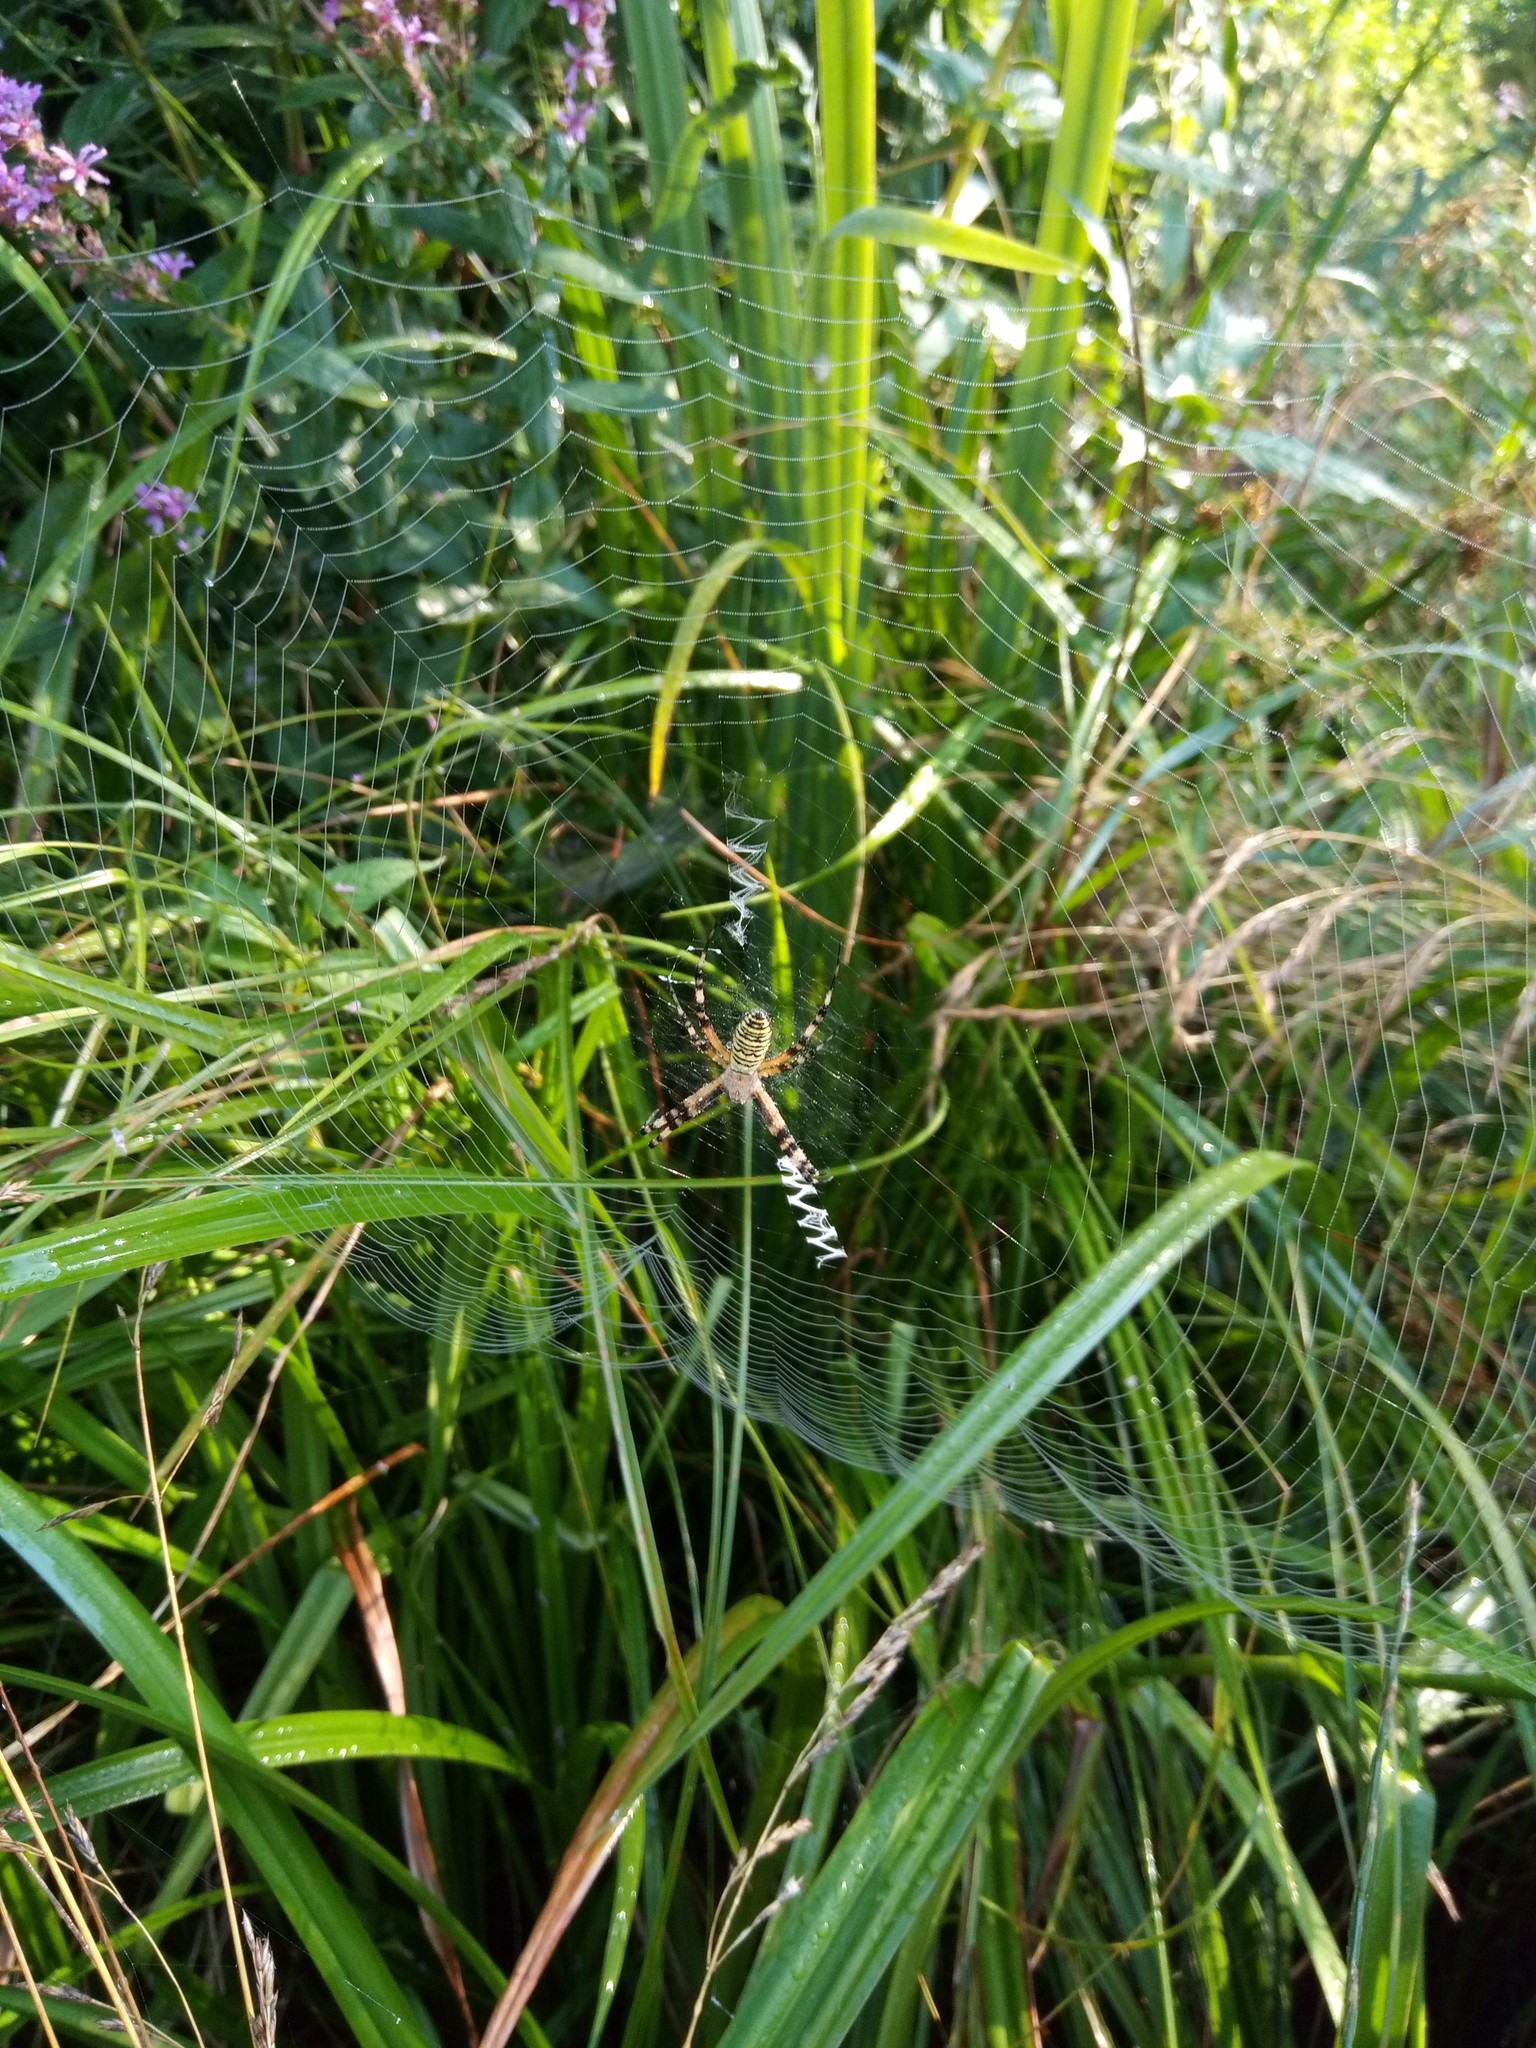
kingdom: Animalia
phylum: Arthropoda
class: Arachnida
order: Araneae
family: Araneidae
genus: Argiope
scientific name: Argiope bruennichi
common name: Wasp spider
